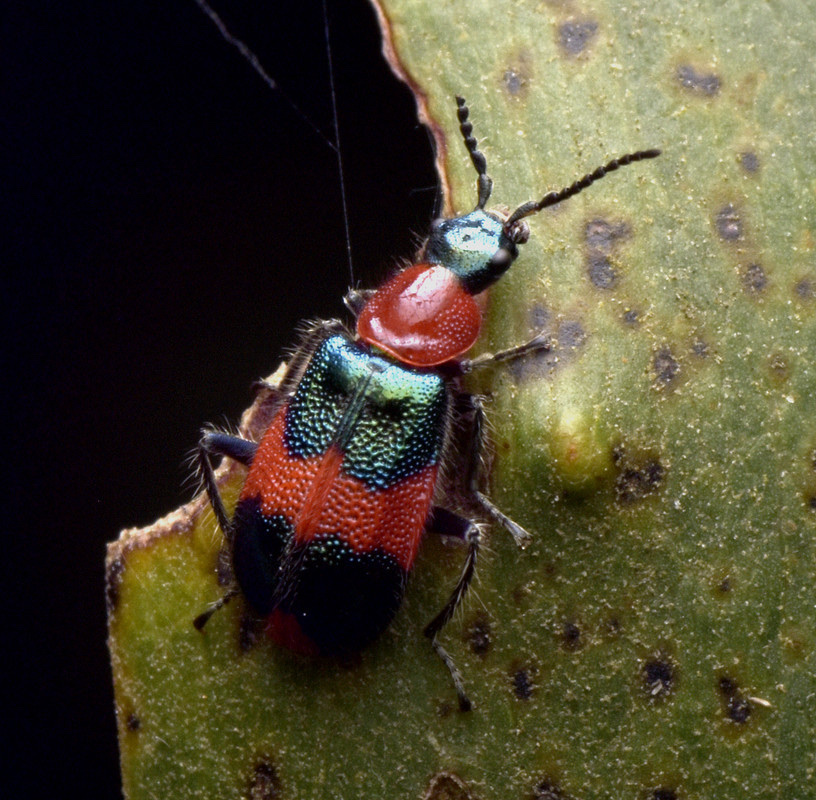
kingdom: Animalia
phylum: Arthropoda
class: Insecta
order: Coleoptera
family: Melyridae
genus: Dicranolaius
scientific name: Dicranolaius bellulus
